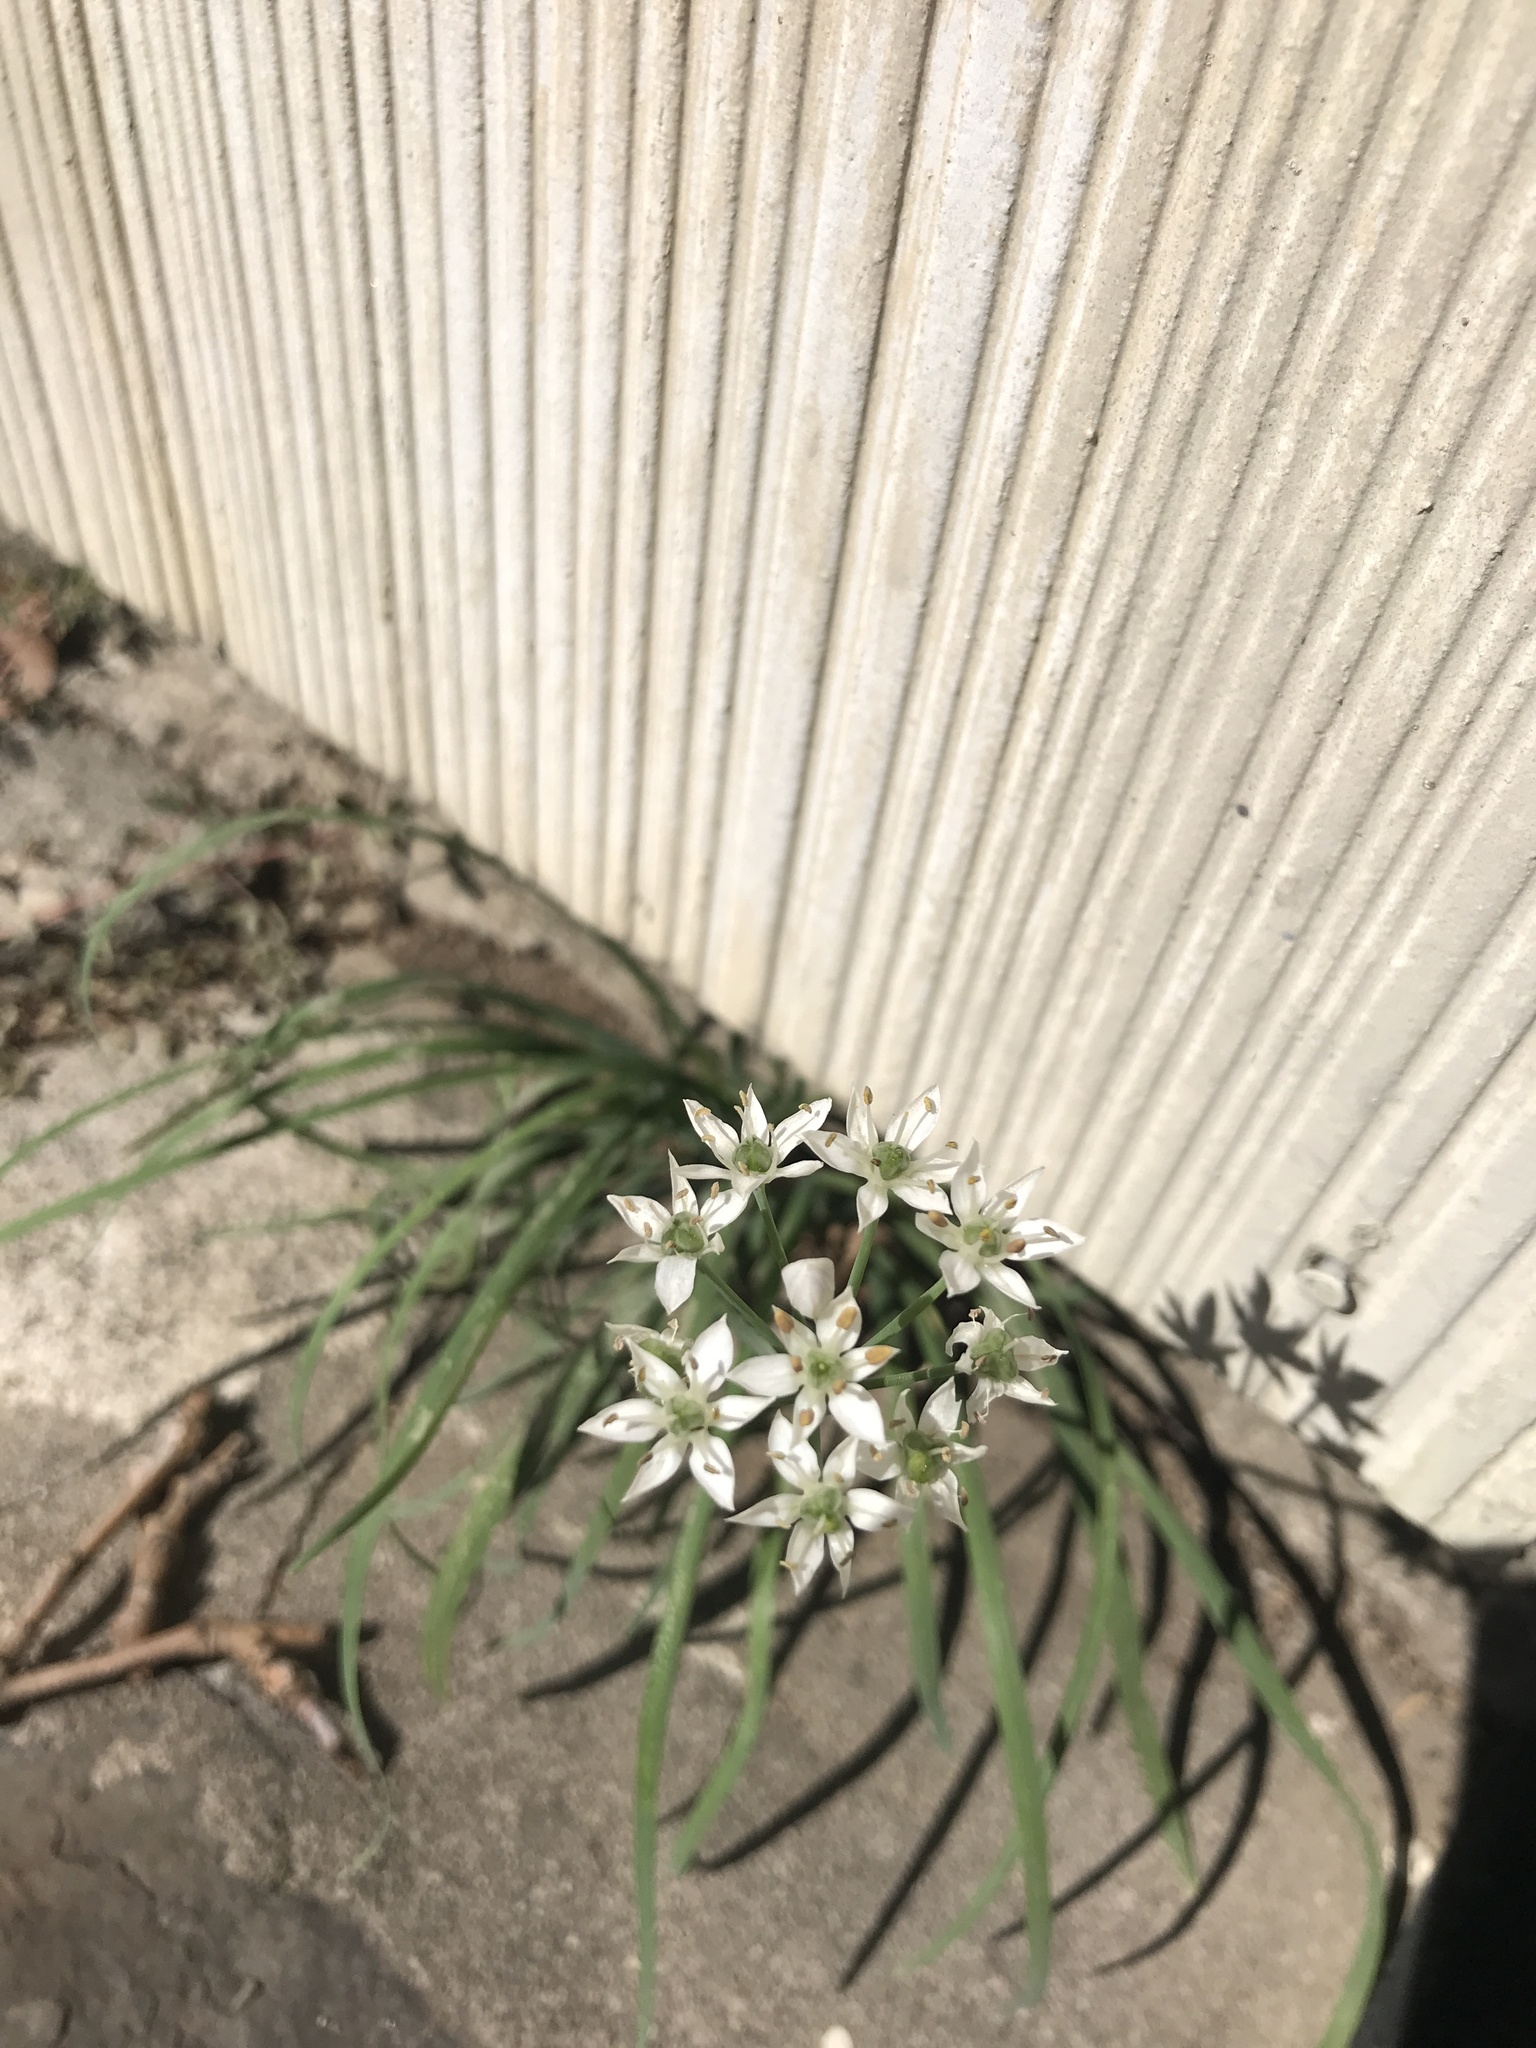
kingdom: Plantae
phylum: Tracheophyta
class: Liliopsida
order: Asparagales
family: Amaryllidaceae
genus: Allium
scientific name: Allium tuberosum
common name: Chinese chives
